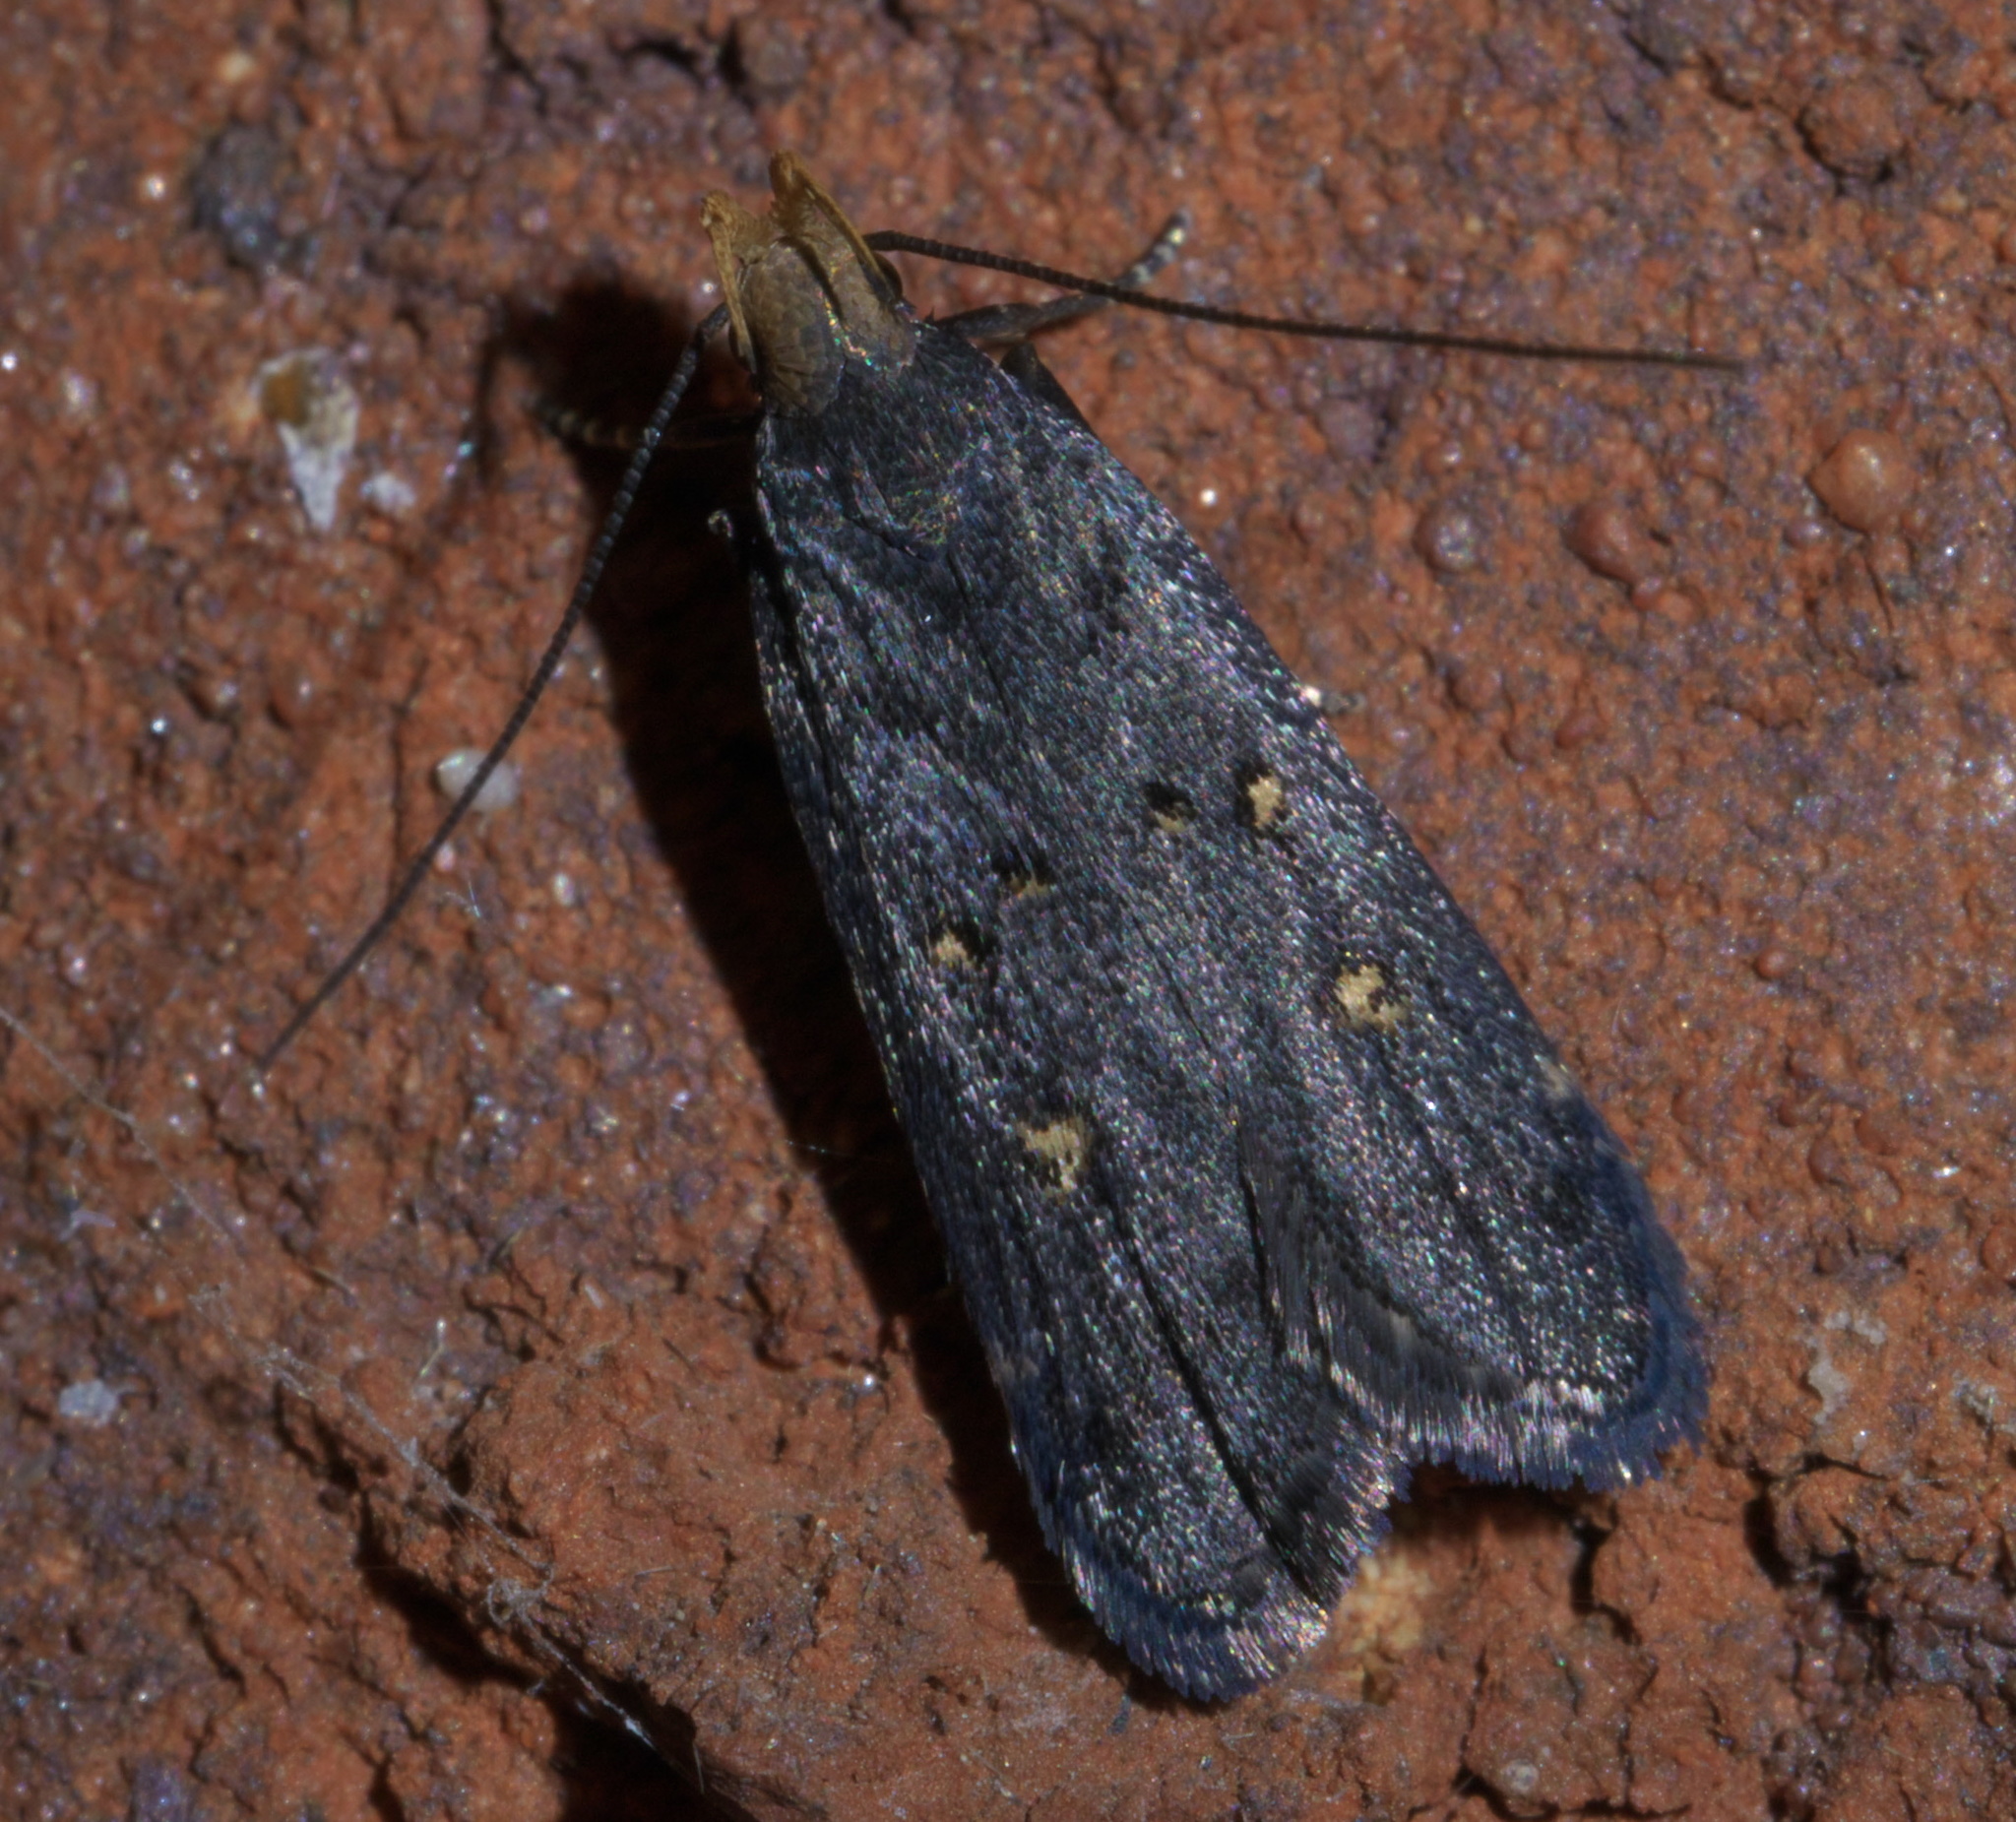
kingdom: Animalia
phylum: Arthropoda
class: Insecta
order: Lepidoptera
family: Gelechiidae
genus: Dichomeris
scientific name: Dichomeris agonia
